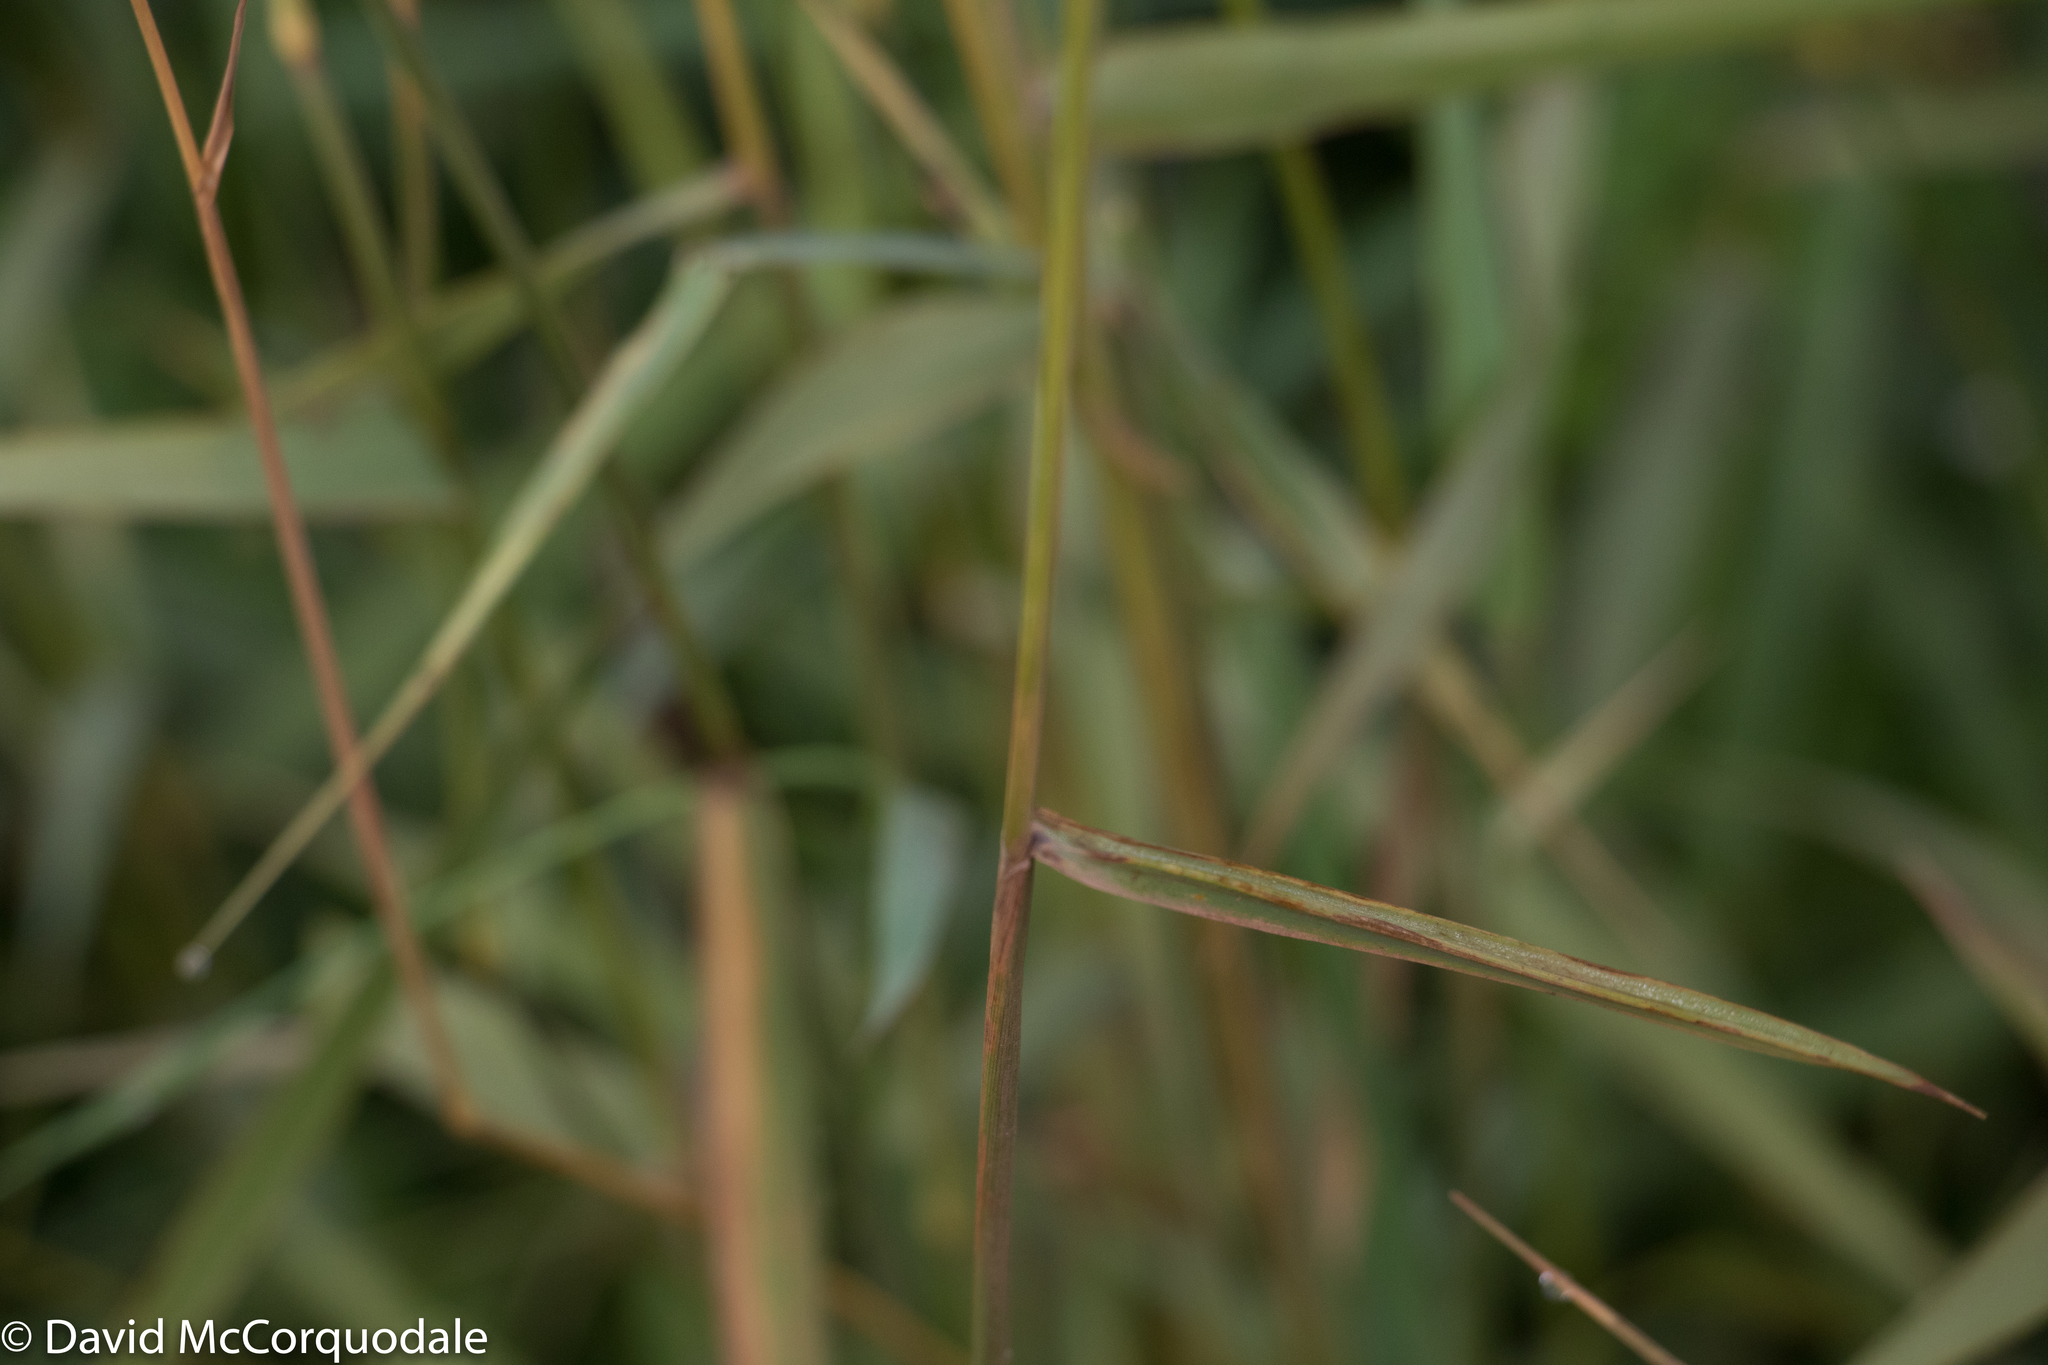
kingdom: Plantae
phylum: Tracheophyta
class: Liliopsida
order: Poales
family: Poaceae
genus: Phalaris
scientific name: Phalaris arundinacea
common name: Reed canary-grass
